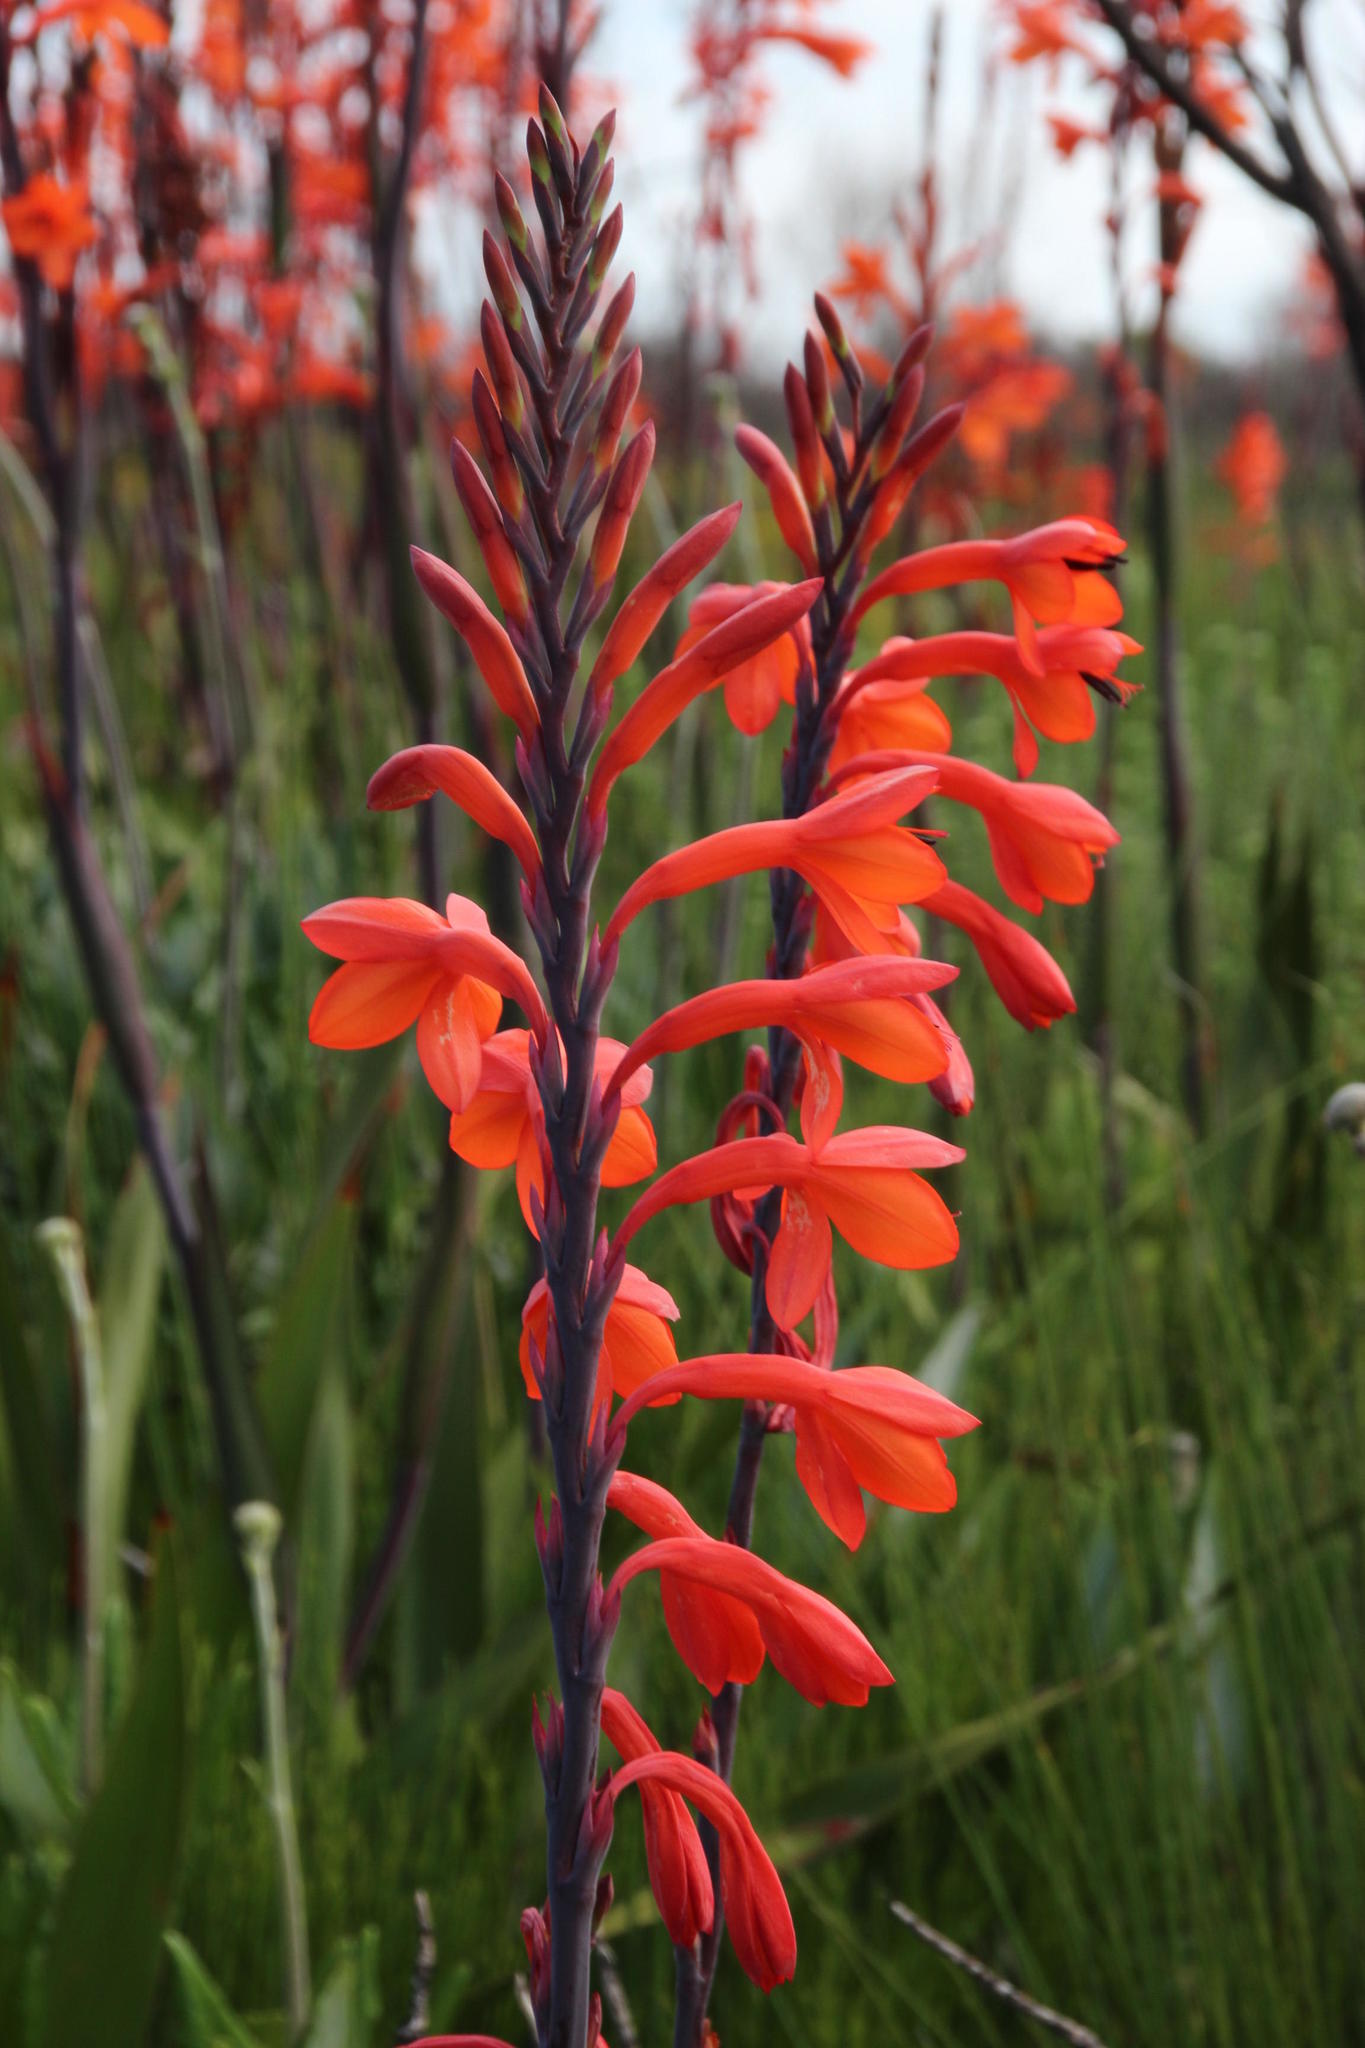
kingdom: Plantae
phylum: Tracheophyta
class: Liliopsida
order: Asparagales
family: Iridaceae
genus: Watsonia
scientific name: Watsonia tabularis
